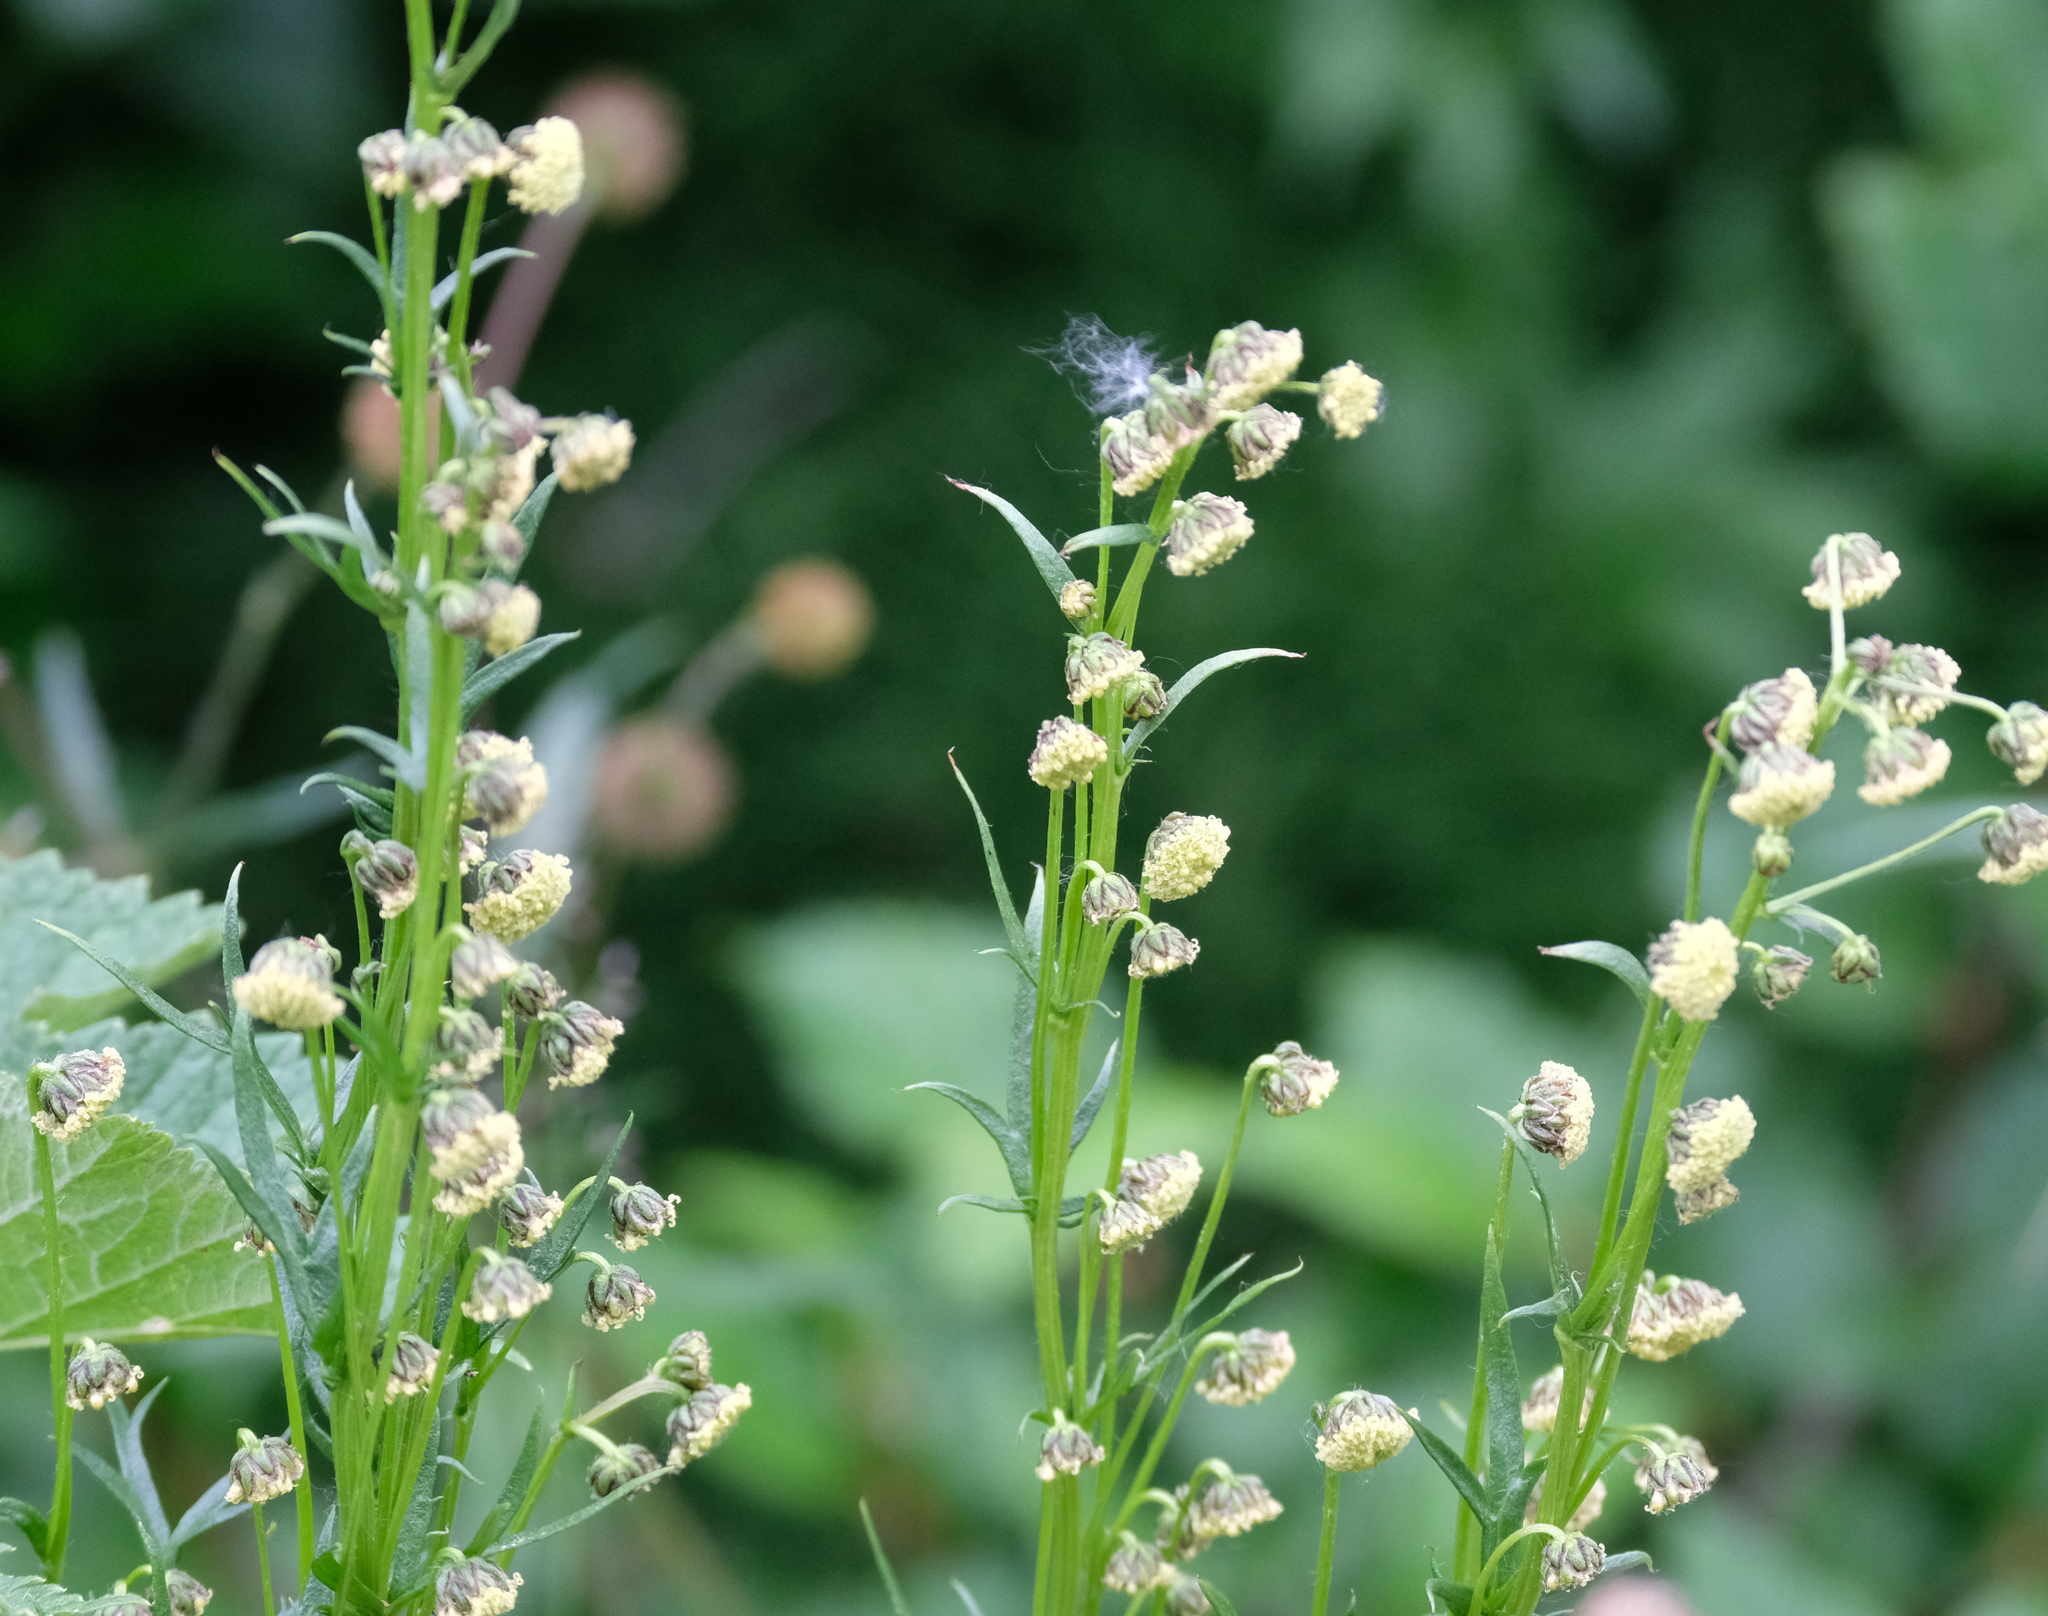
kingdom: Plantae
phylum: Tracheophyta
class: Magnoliopsida
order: Asterales
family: Asteraceae
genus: Artemisia
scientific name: Artemisia arctica
